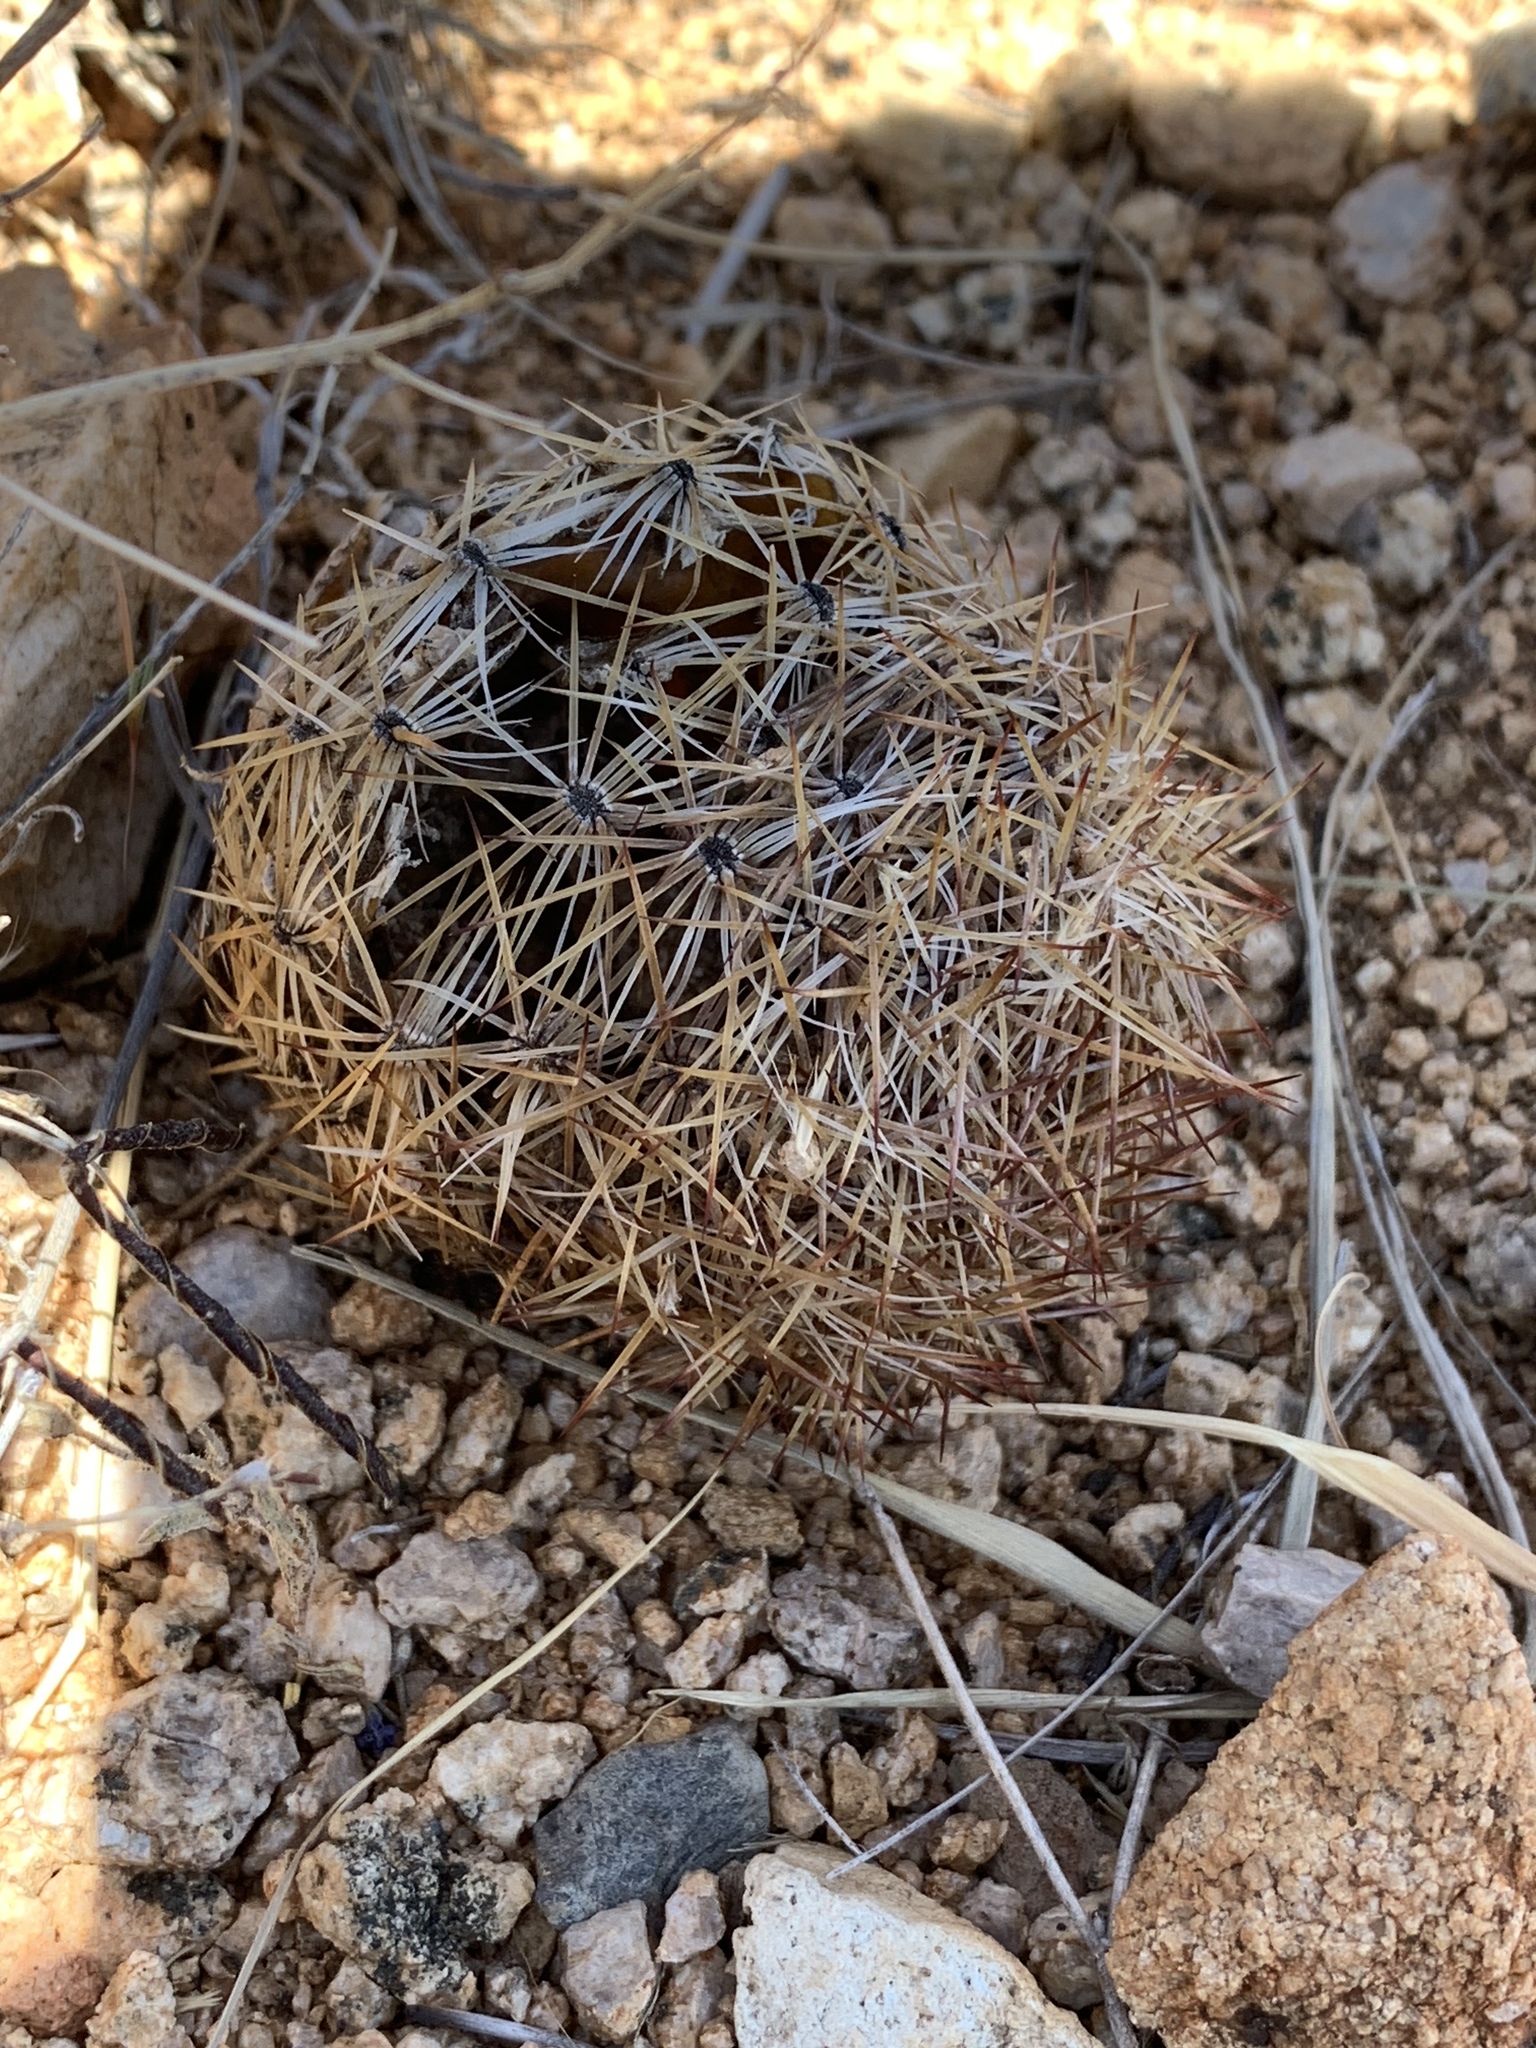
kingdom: Plantae
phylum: Tracheophyta
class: Magnoliopsida
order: Caryophyllales
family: Cactaceae
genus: Pelecyphora
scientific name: Pelecyphora vivipara
